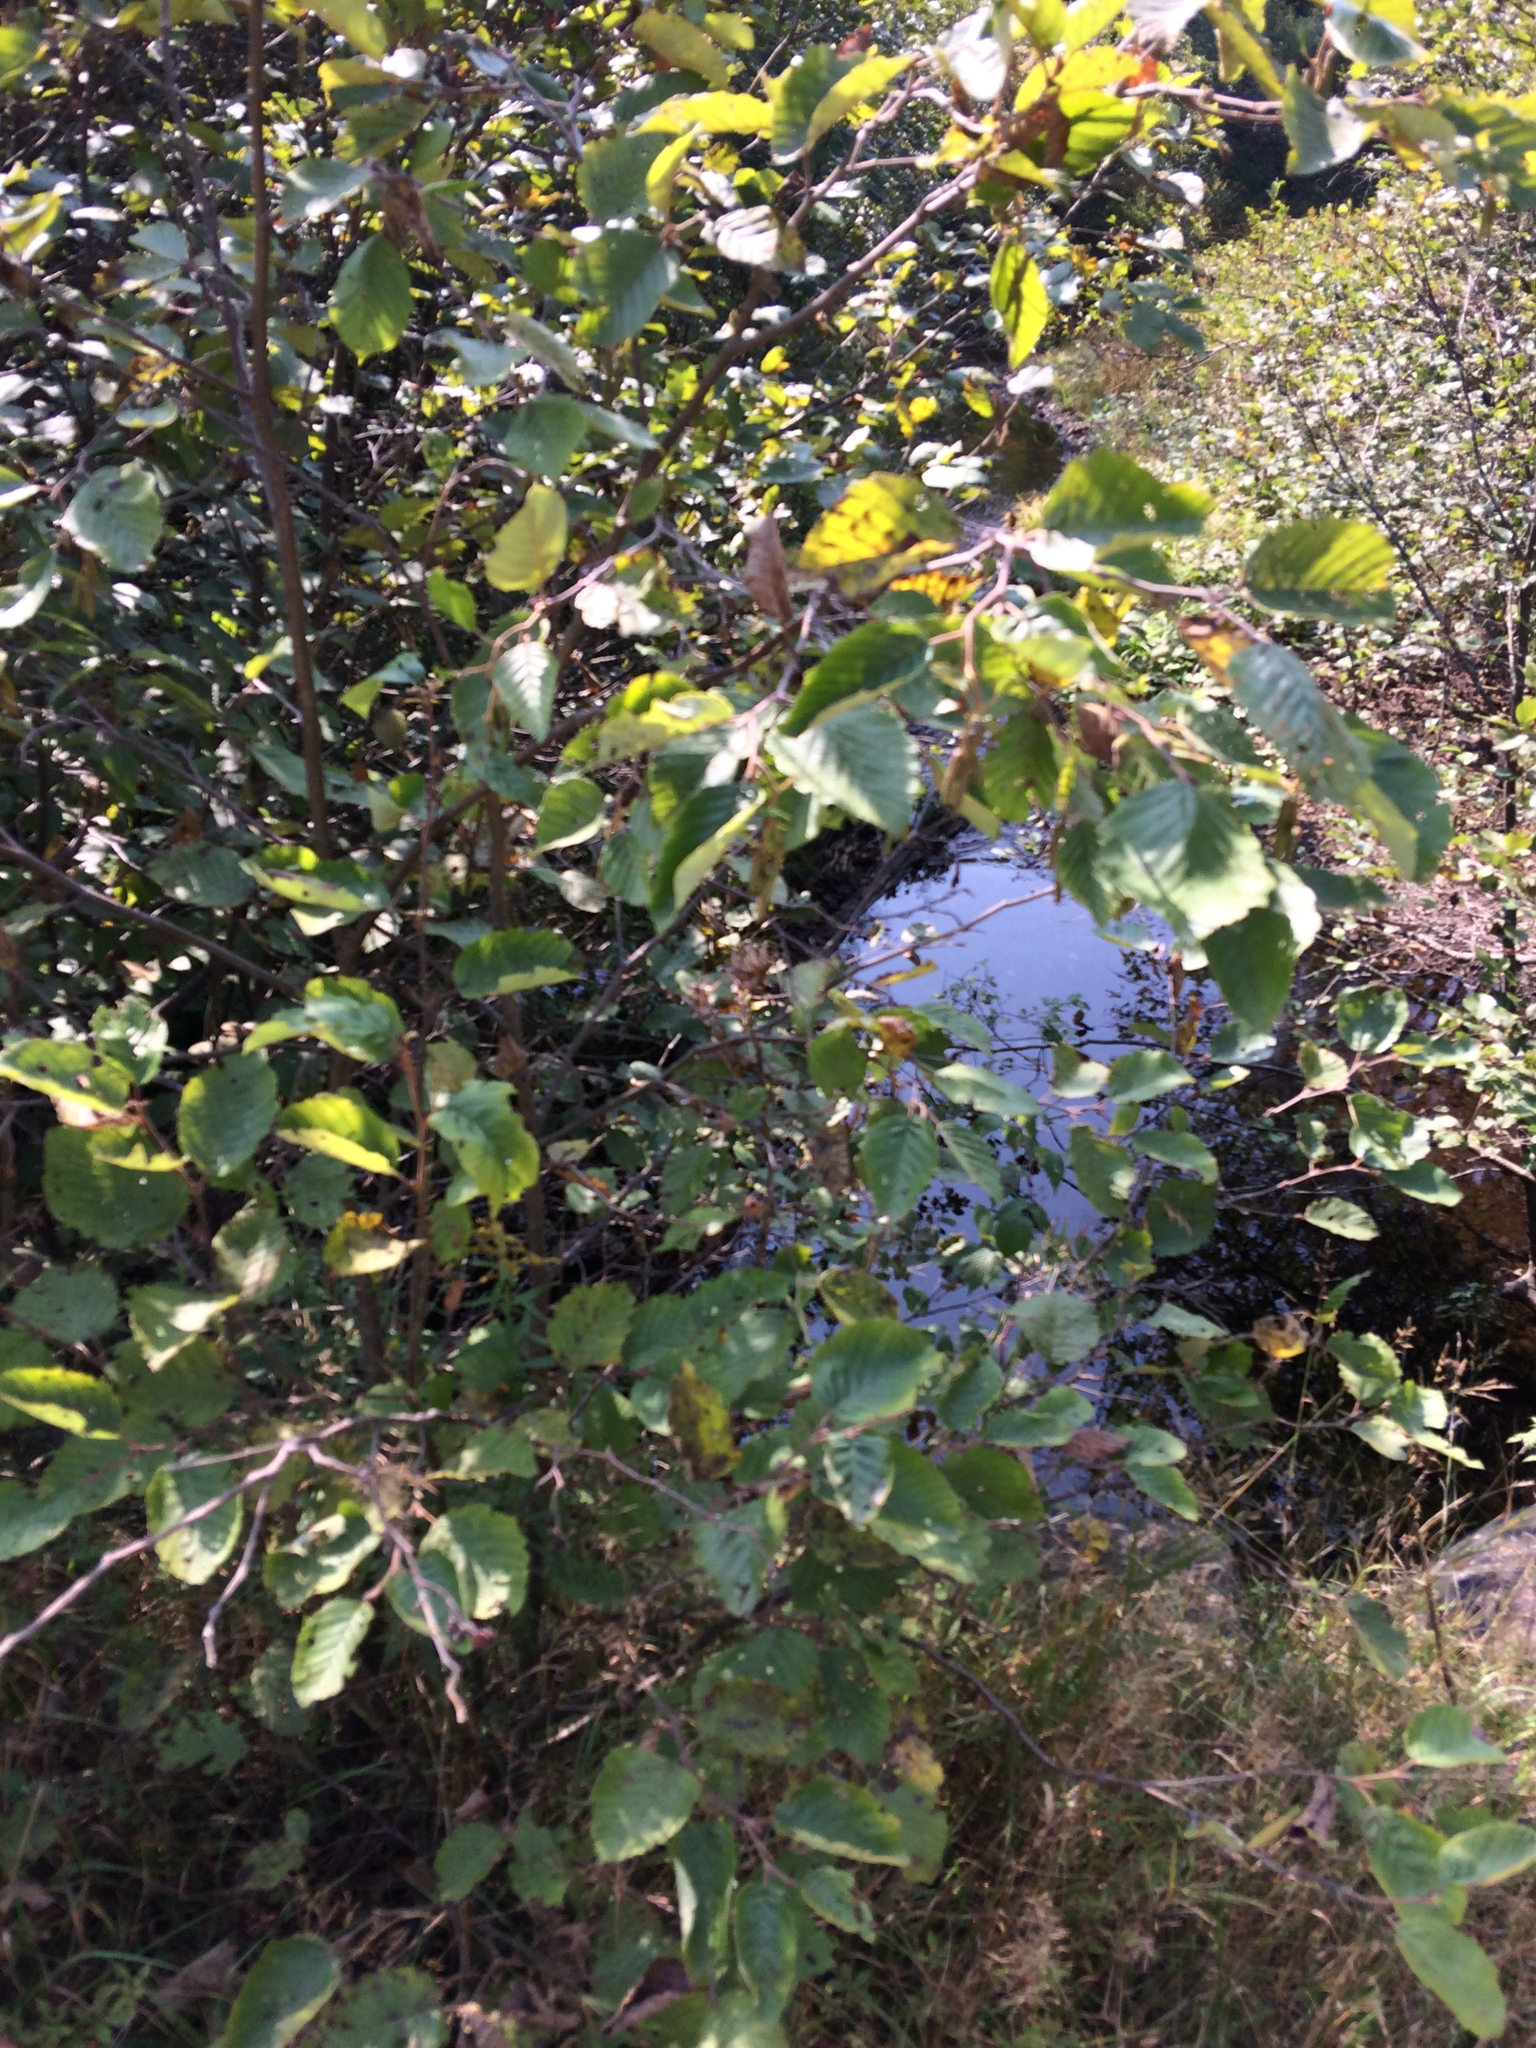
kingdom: Plantae
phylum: Tracheophyta
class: Magnoliopsida
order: Fagales
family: Betulaceae
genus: Alnus
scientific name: Alnus incana
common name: Grey alder
